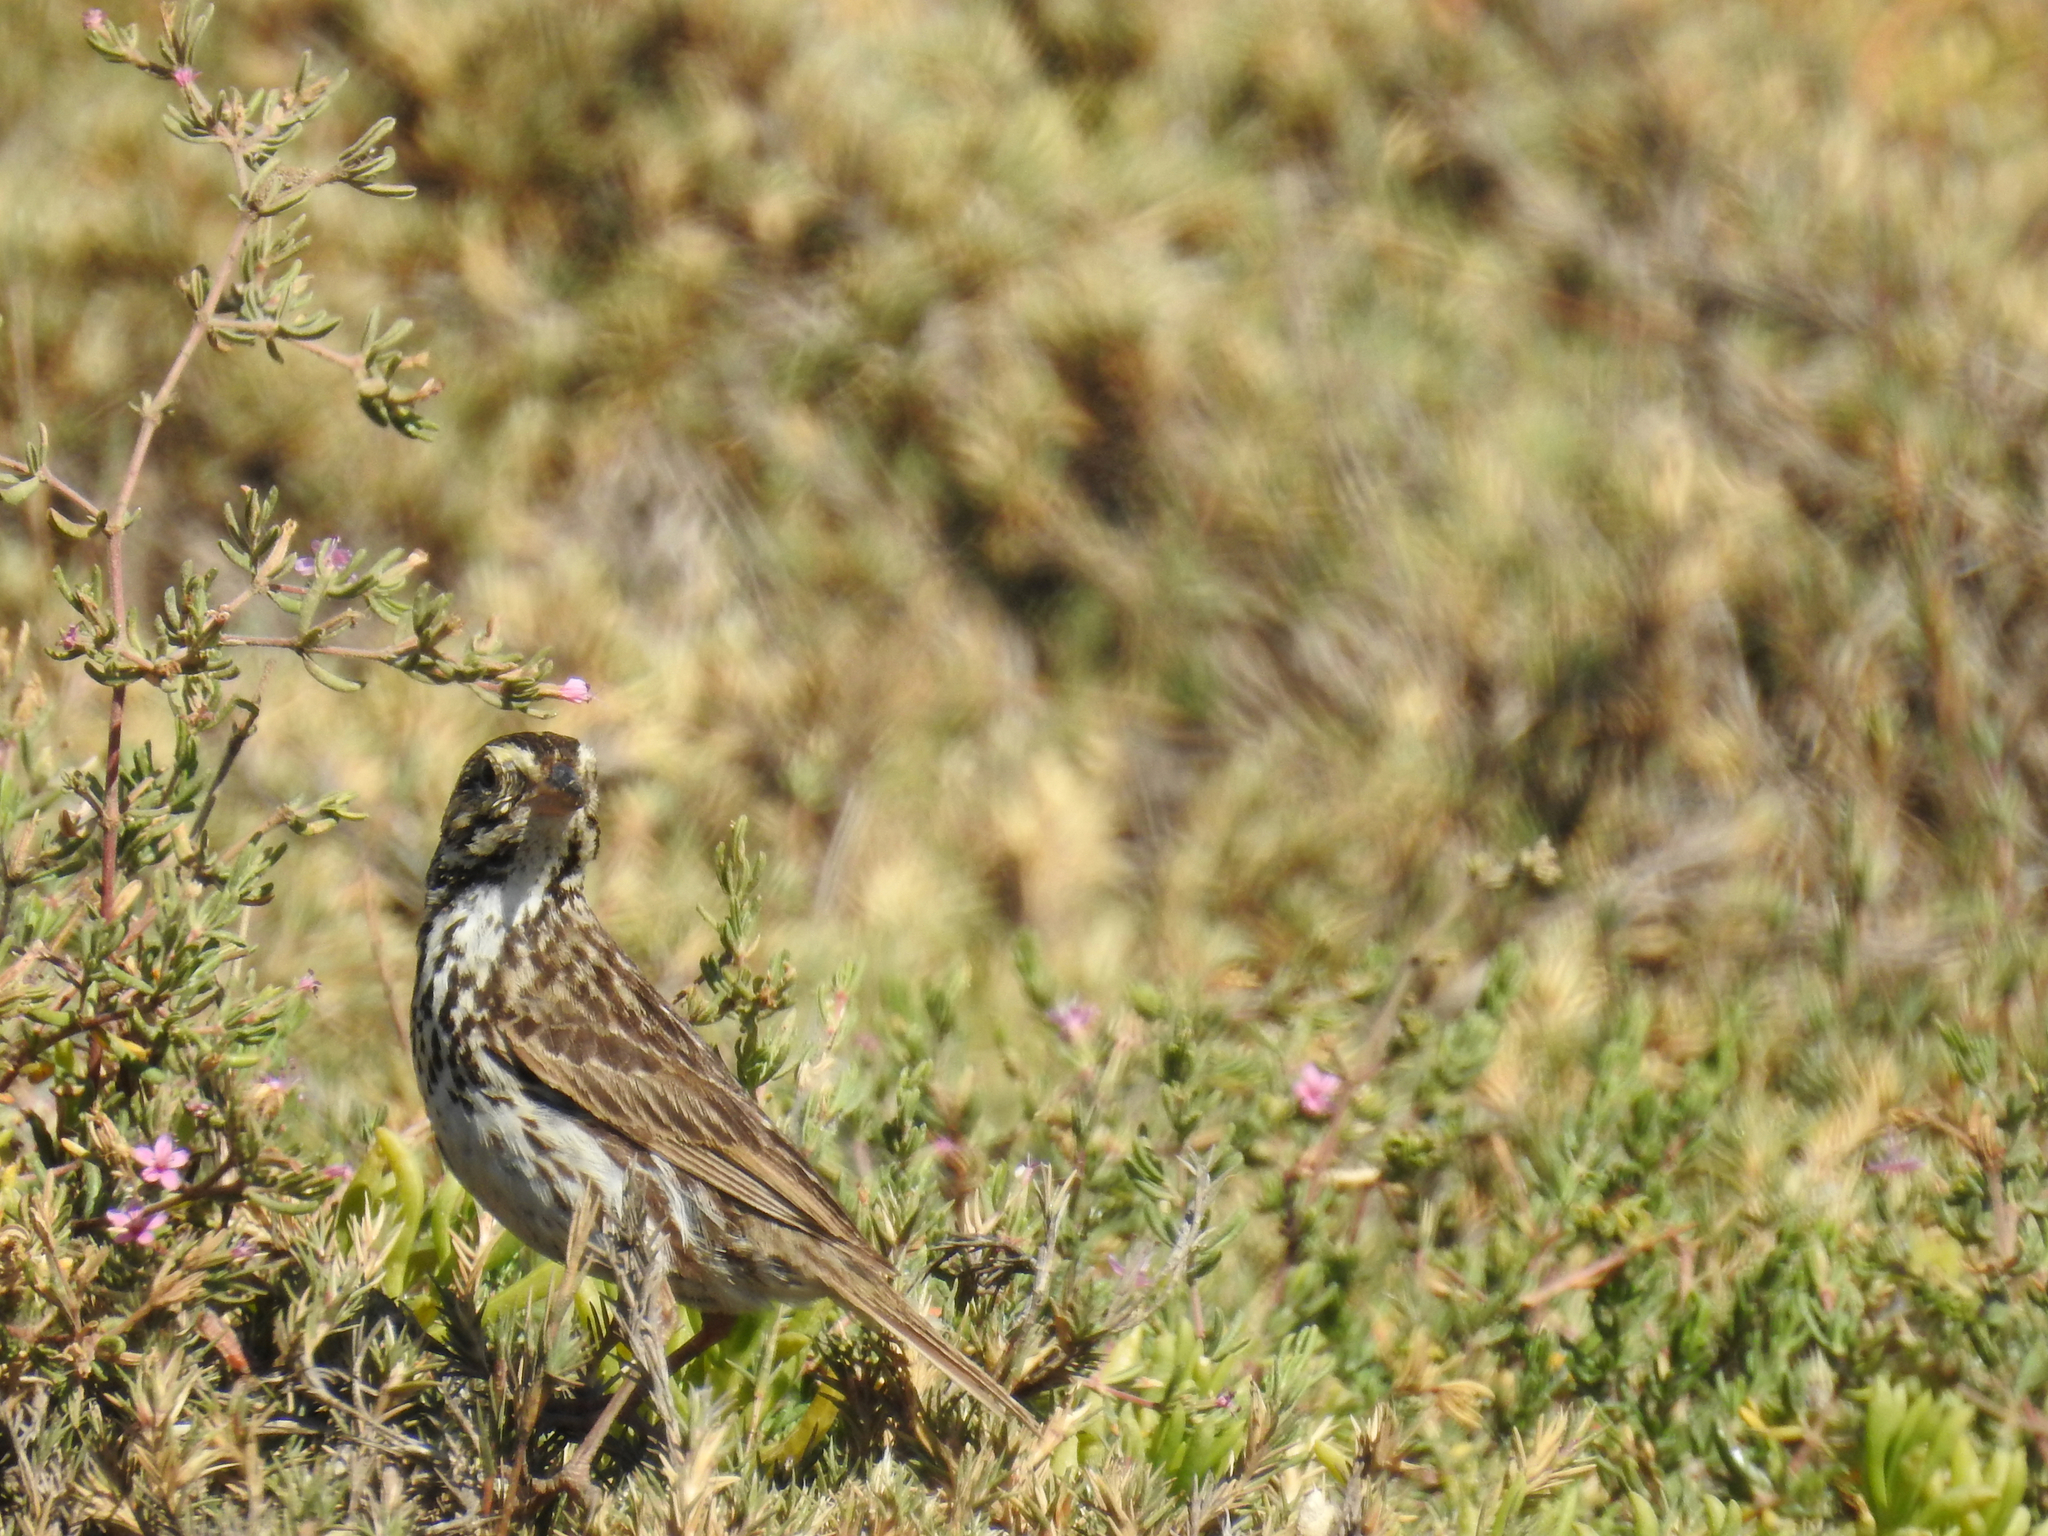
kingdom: Animalia
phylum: Chordata
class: Aves
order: Passeriformes
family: Passerellidae
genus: Passerculus
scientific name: Passerculus sandwichensis
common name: Savannah sparrow
